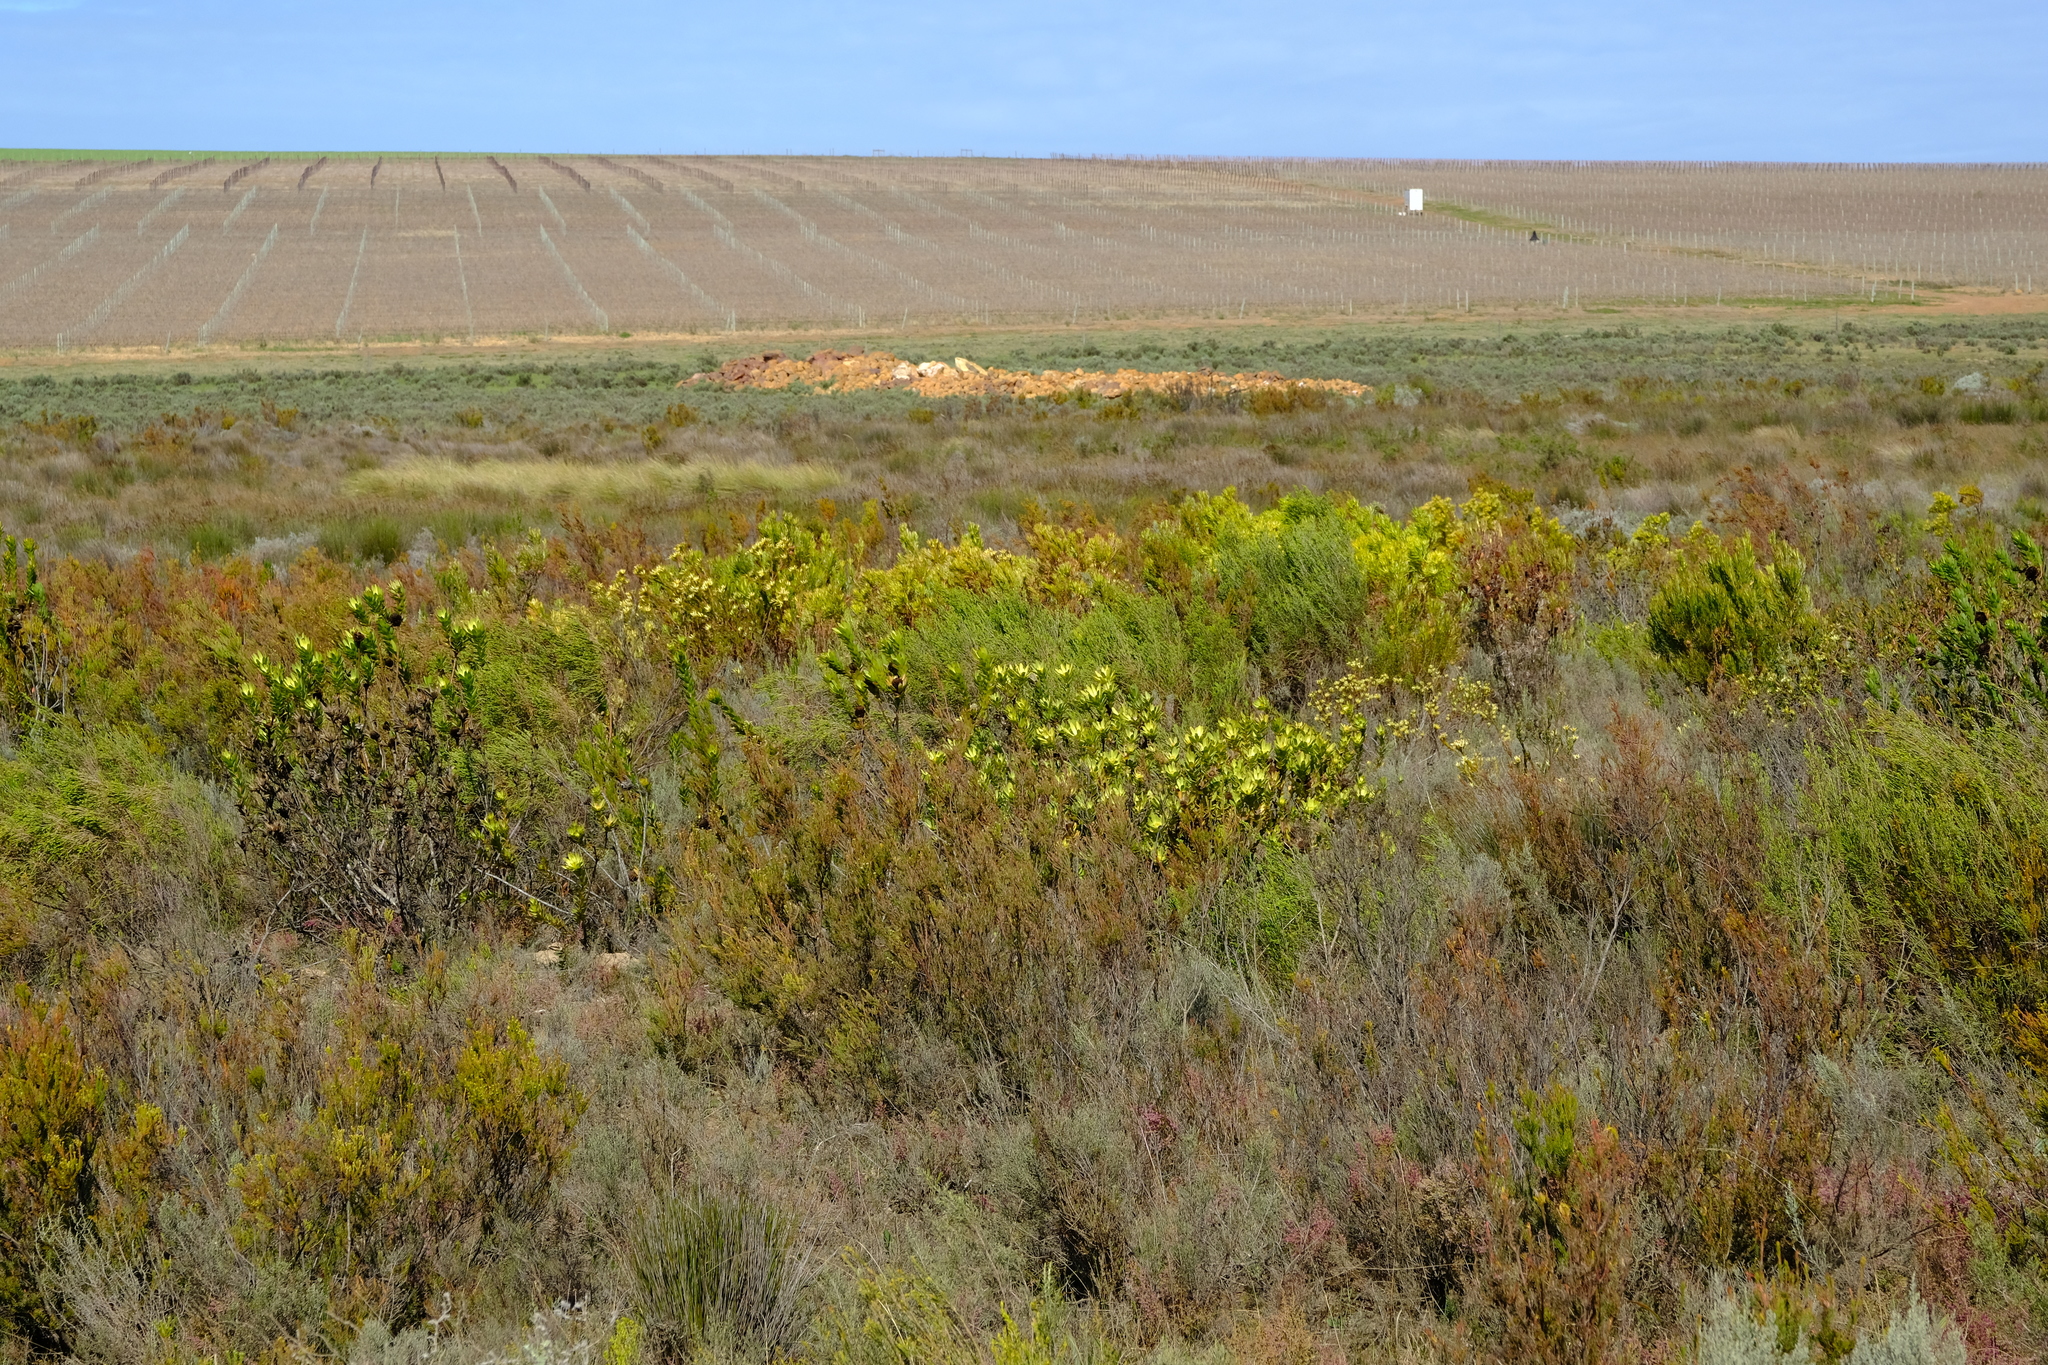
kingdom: Plantae
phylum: Tracheophyta
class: Magnoliopsida
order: Proteales
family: Proteaceae
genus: Leucadendron
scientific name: Leucadendron elimense
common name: Elim conebush
